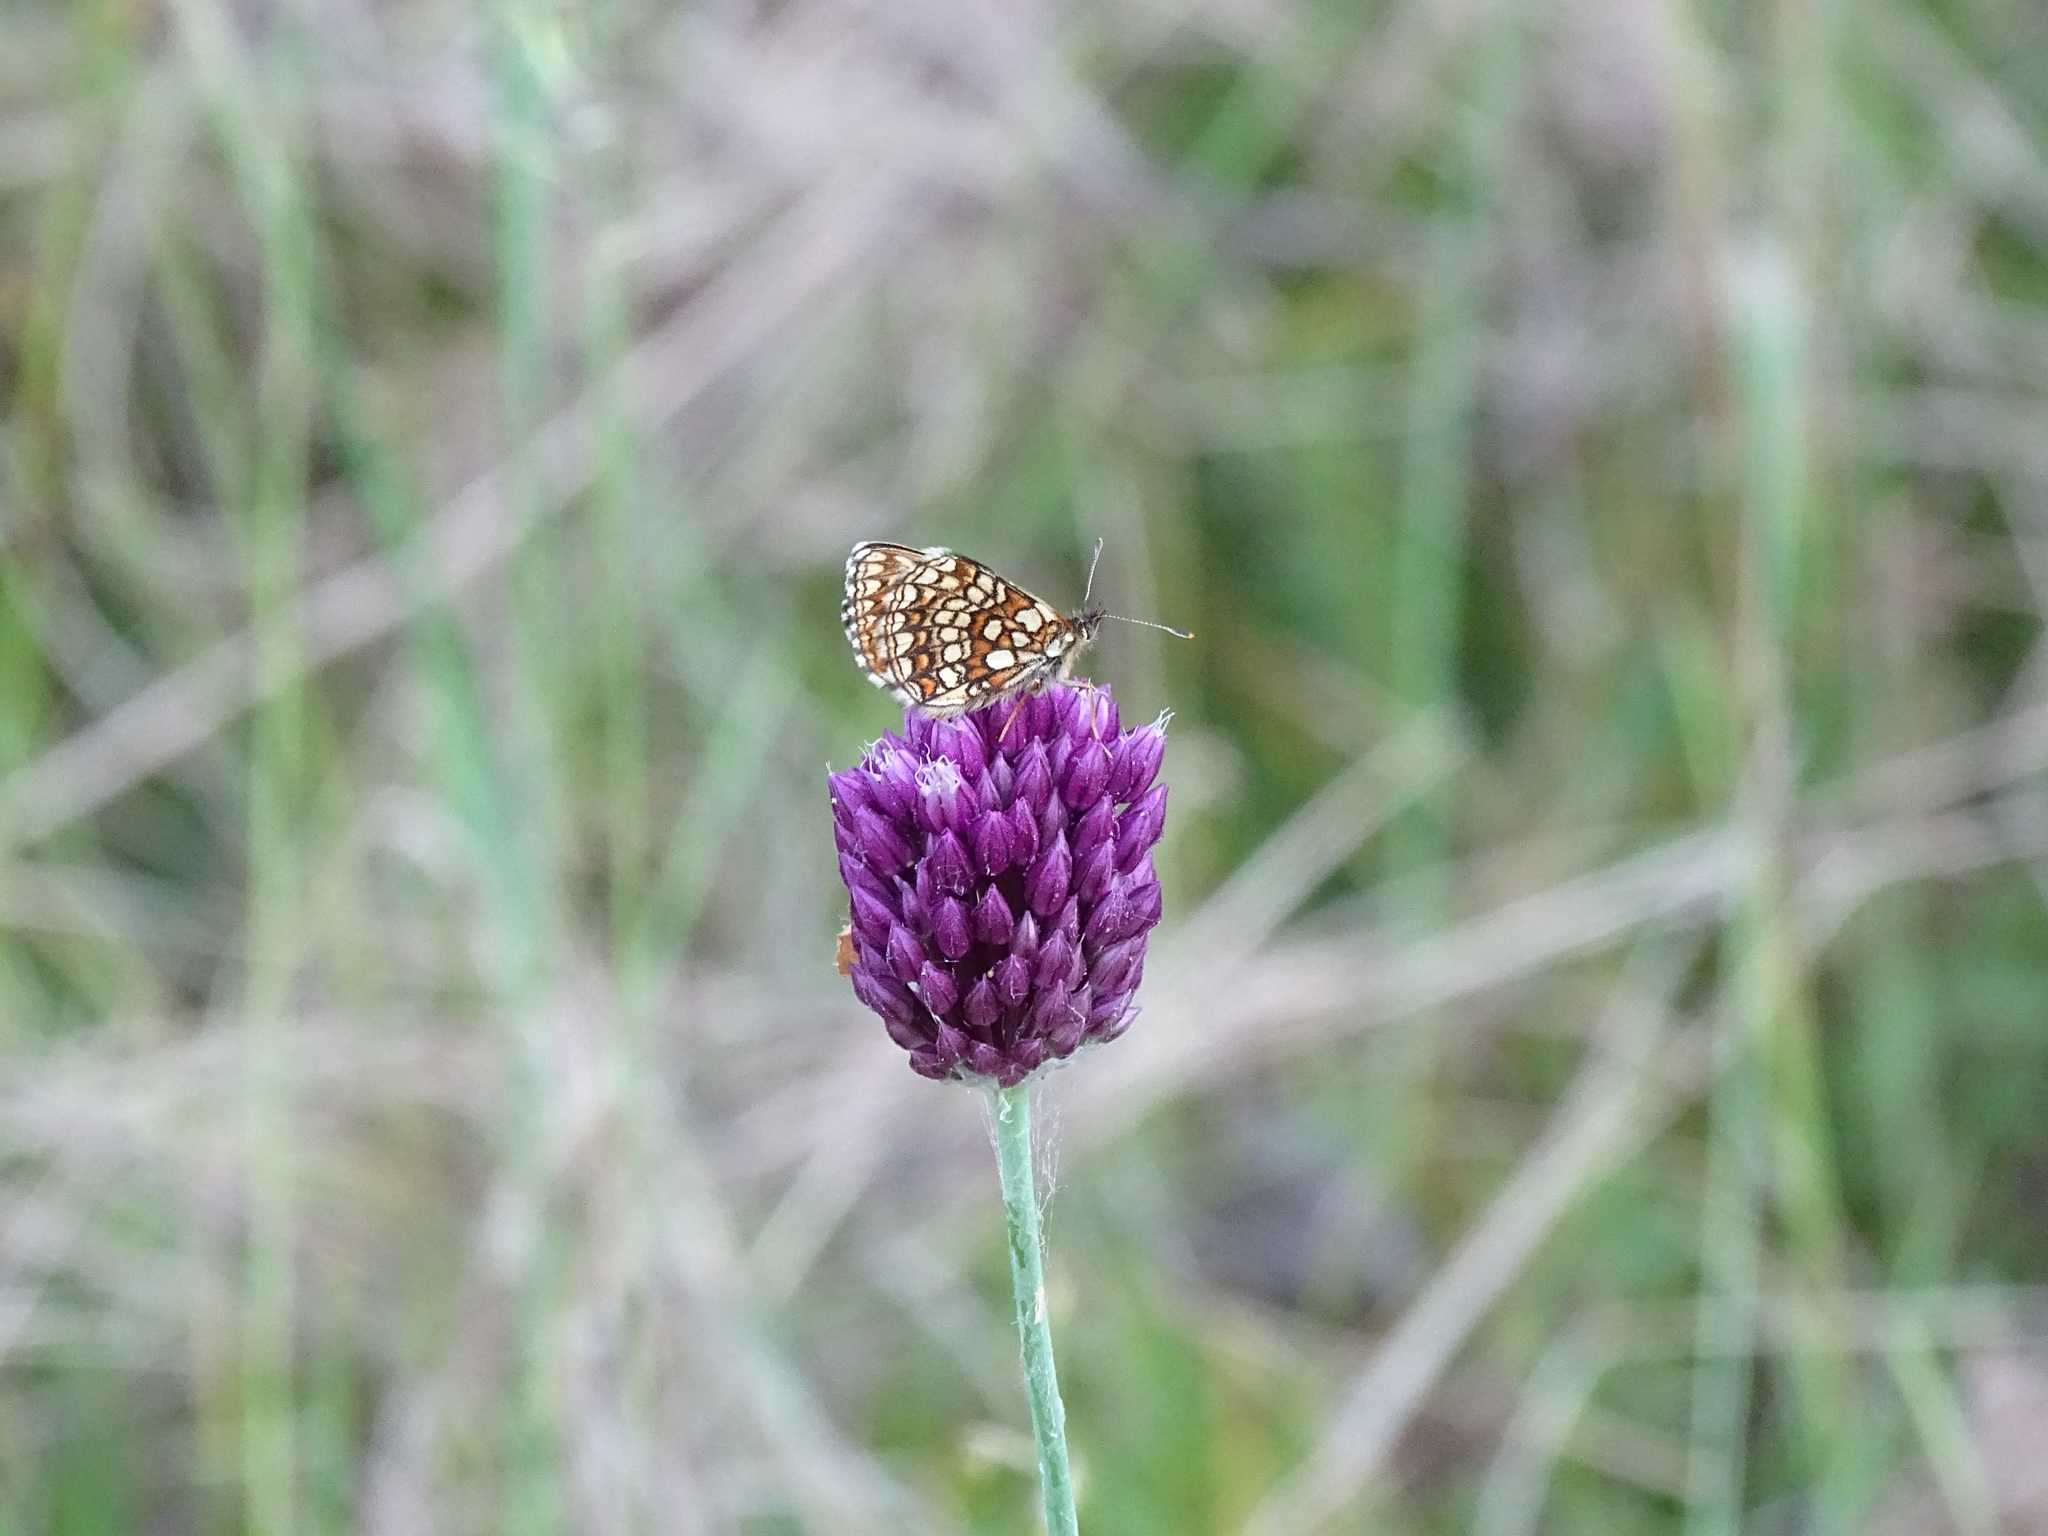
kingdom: Plantae
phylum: Tracheophyta
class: Liliopsida
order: Asparagales
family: Amaryllidaceae
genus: Allium
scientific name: Allium rotundum
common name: Sand leek
